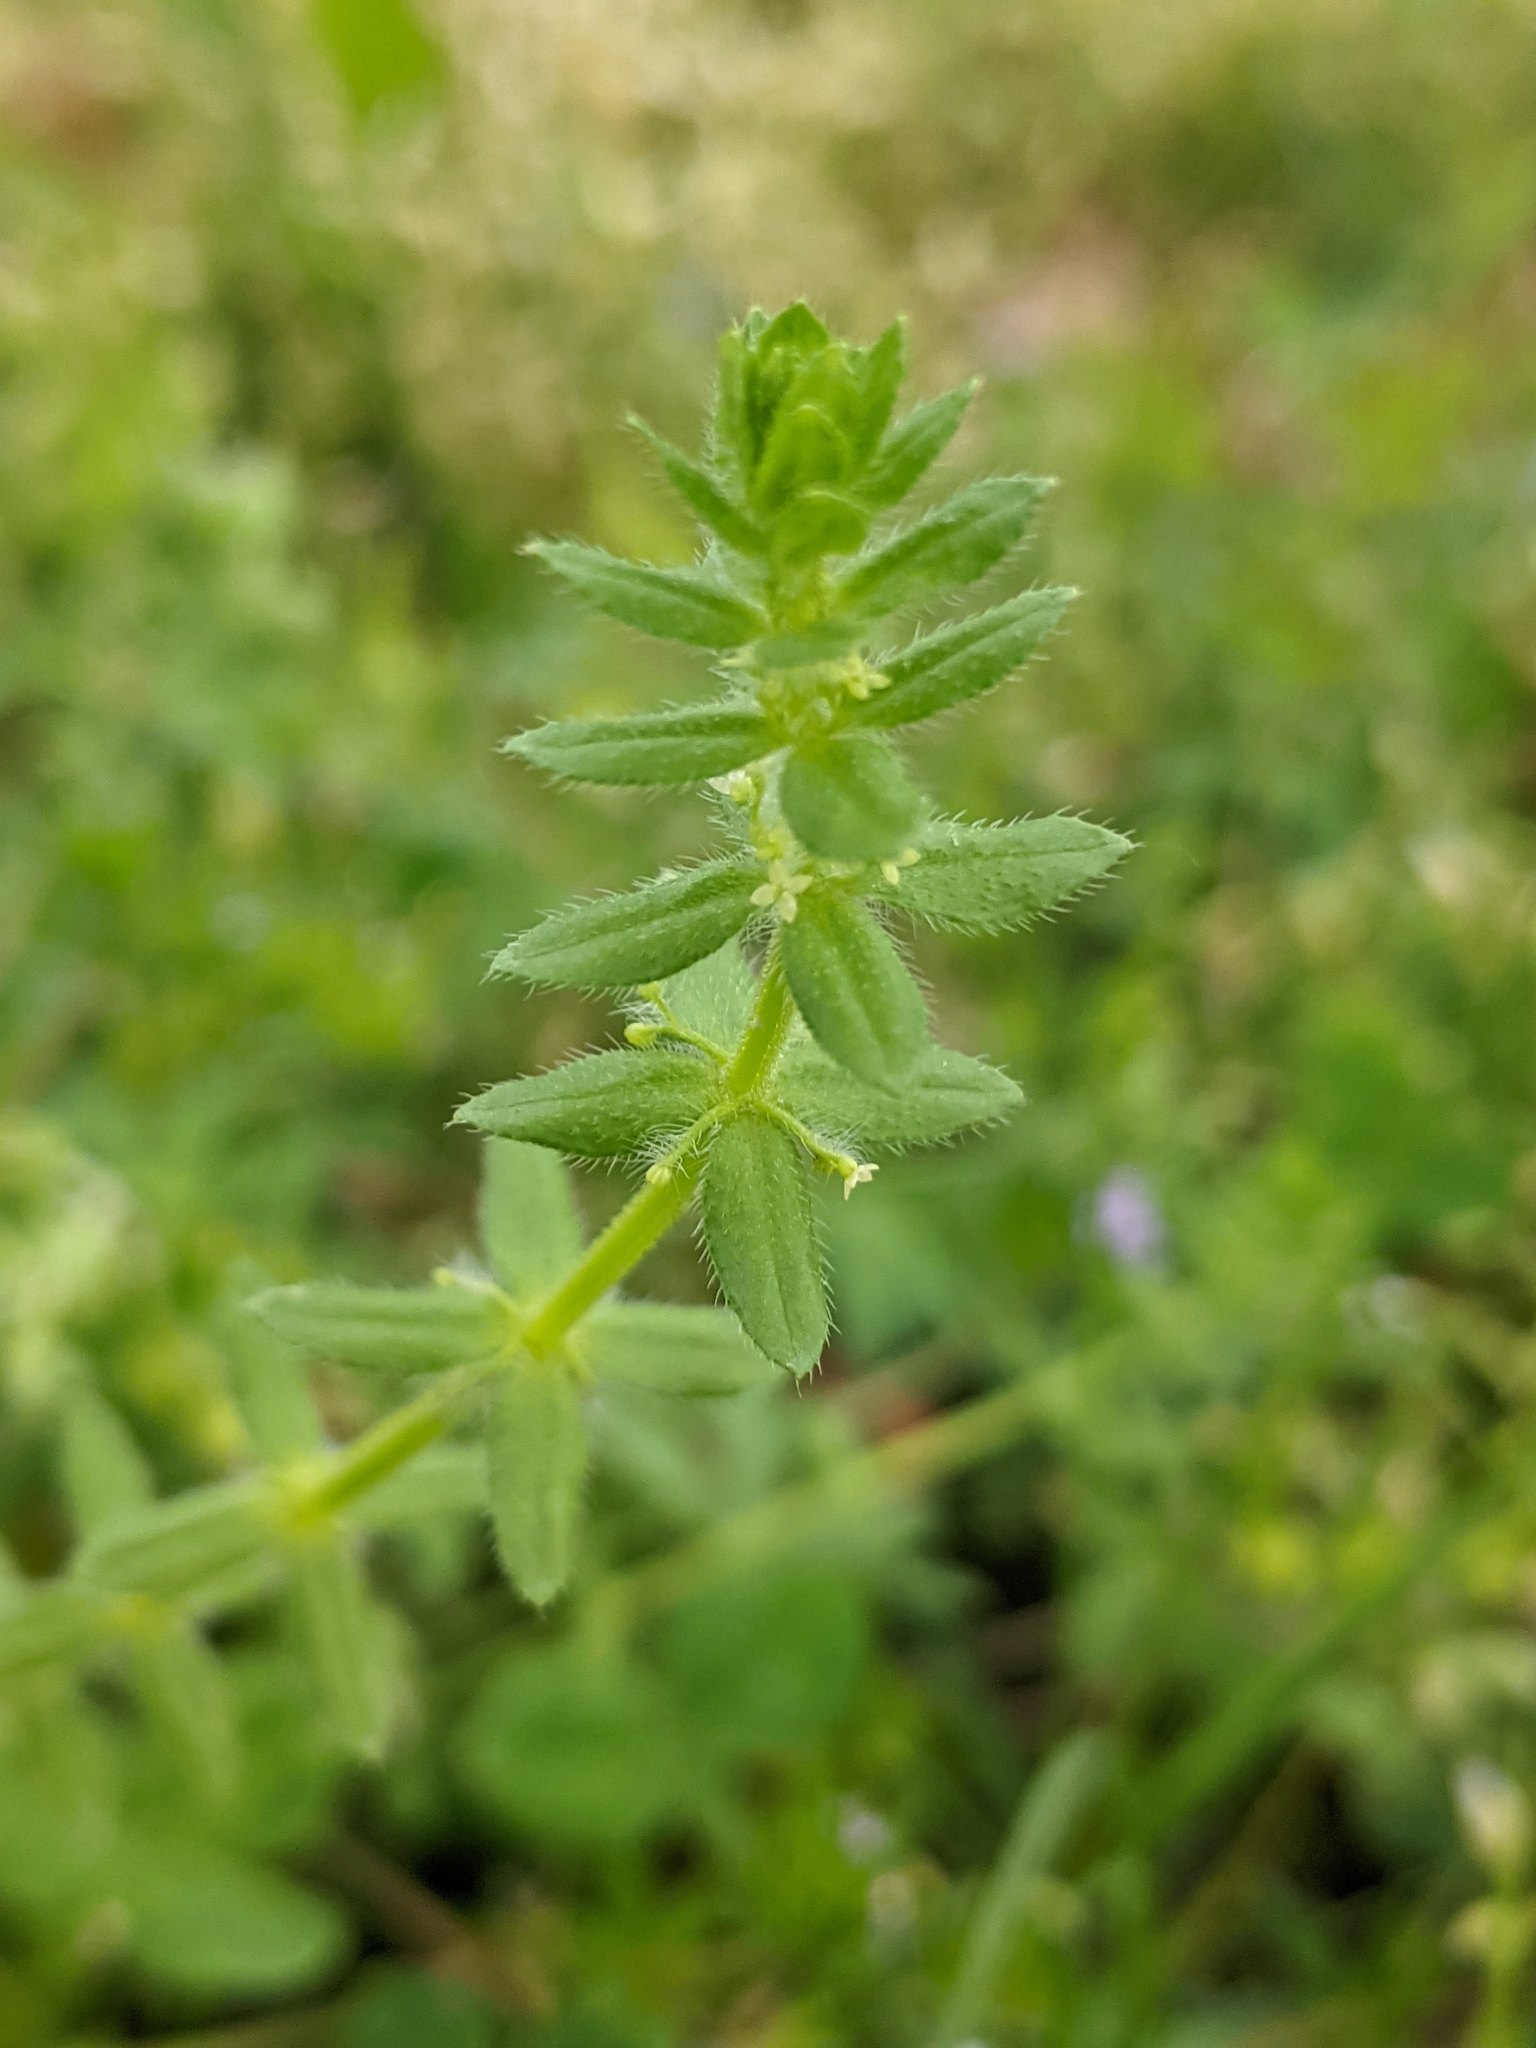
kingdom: Plantae
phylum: Tracheophyta
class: Magnoliopsida
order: Gentianales
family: Rubiaceae
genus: Cruciata
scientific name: Cruciata pedemontana
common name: Piedmont bedstraw
